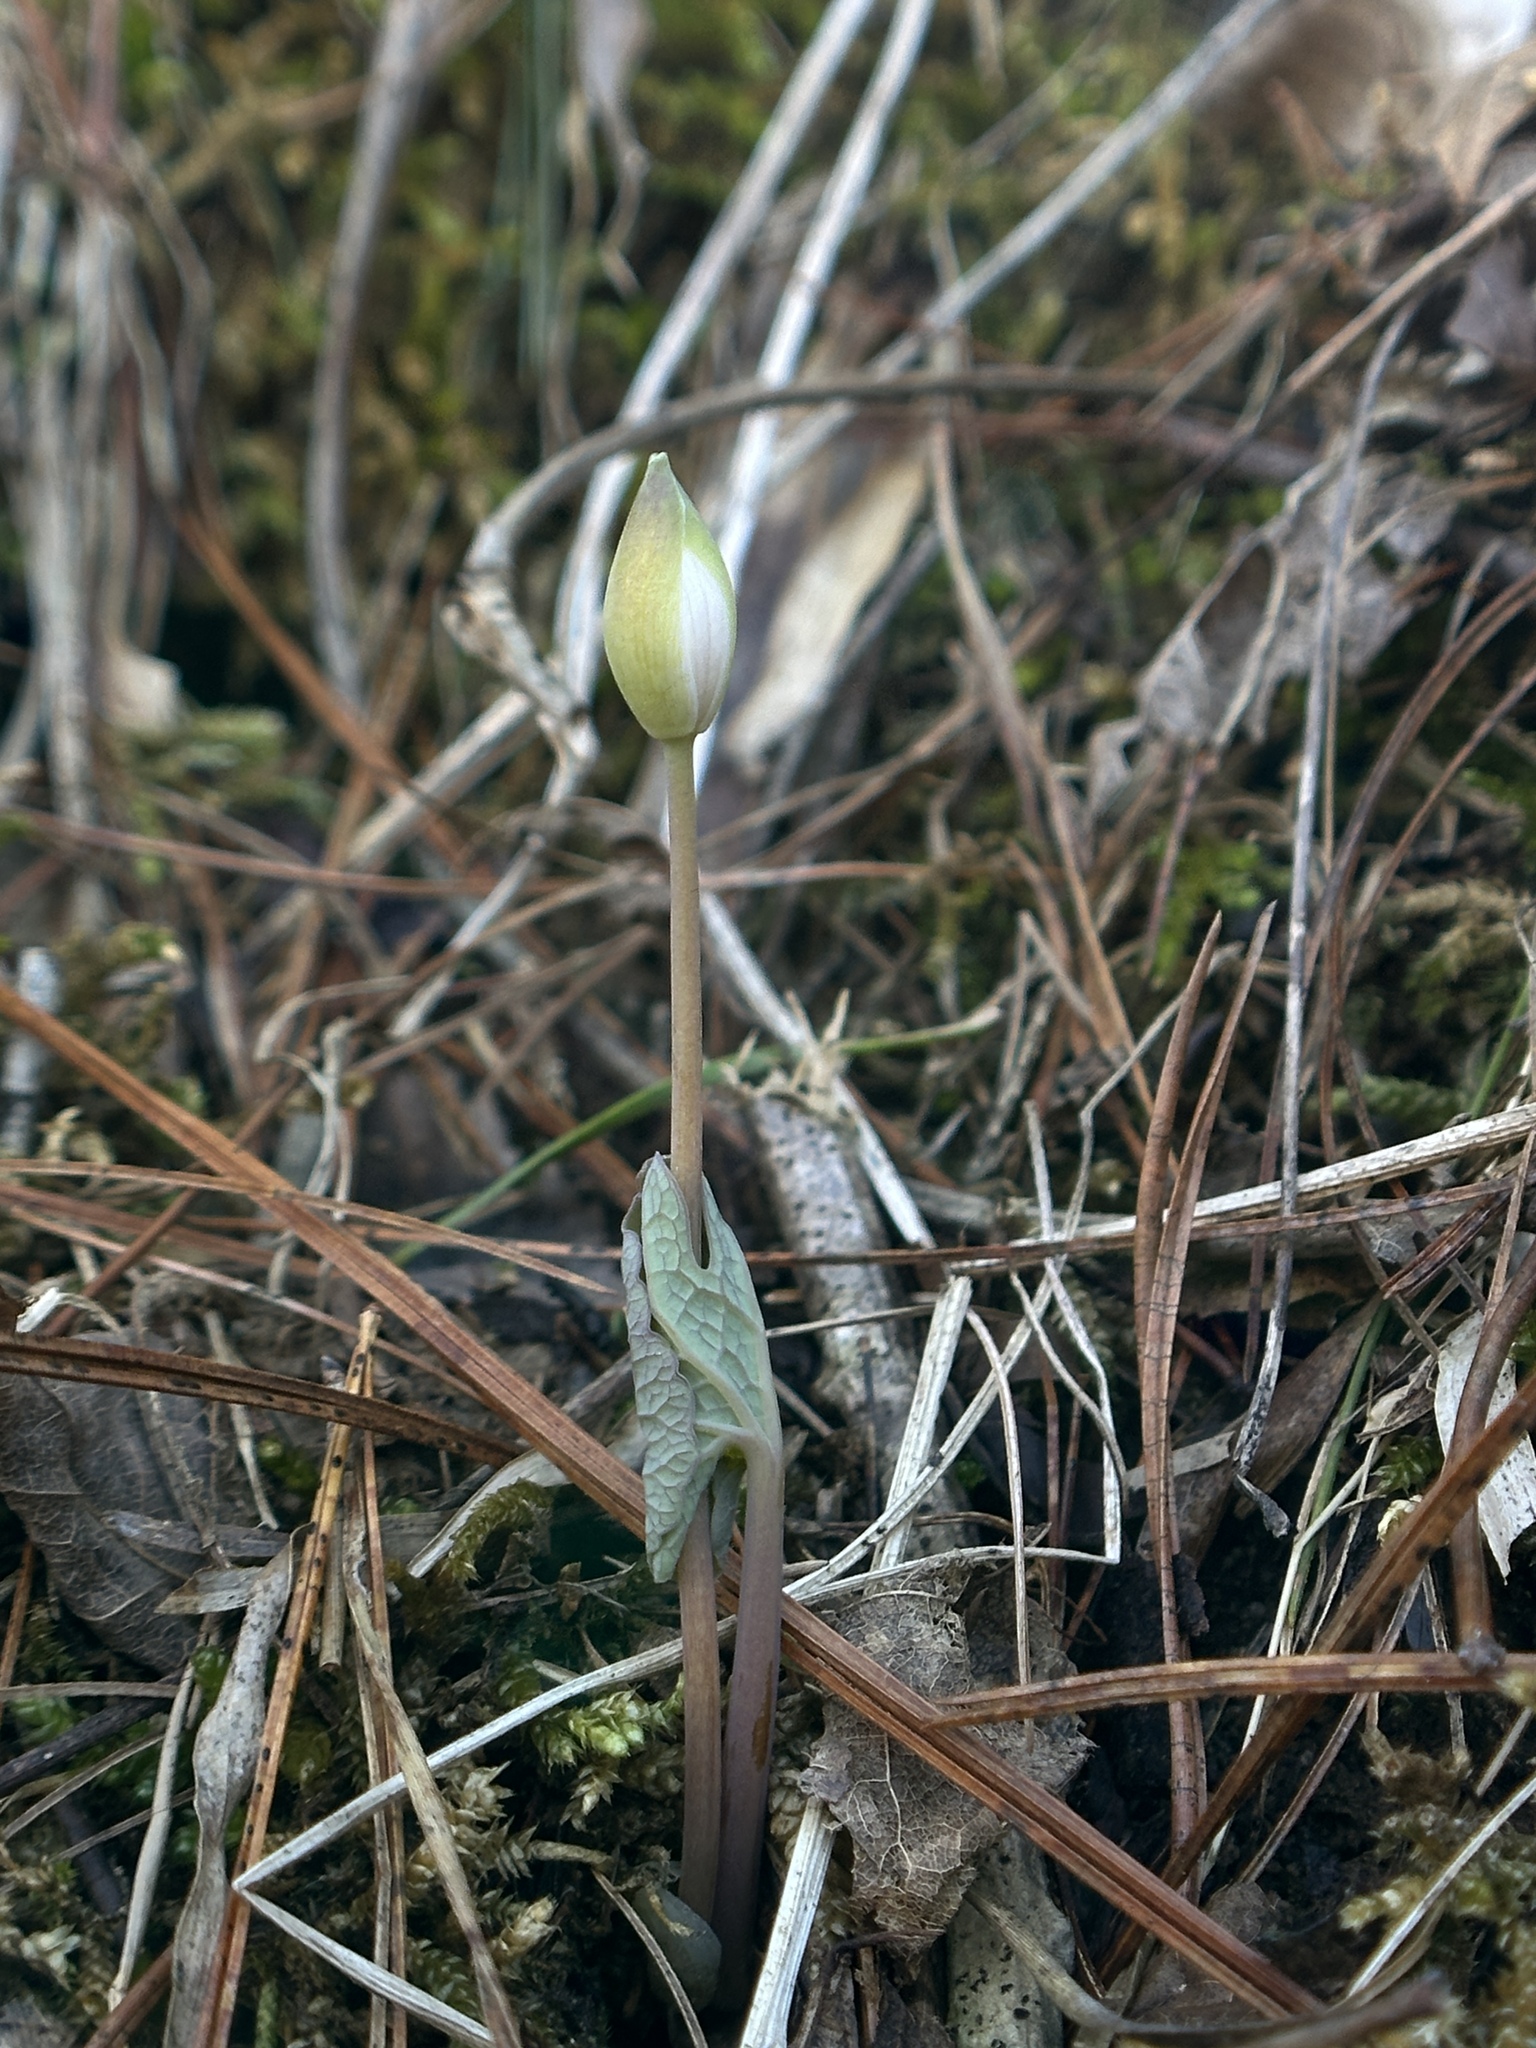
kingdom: Plantae
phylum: Tracheophyta
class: Magnoliopsida
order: Ranunculales
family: Papaveraceae
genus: Sanguinaria
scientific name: Sanguinaria canadensis
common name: Bloodroot
